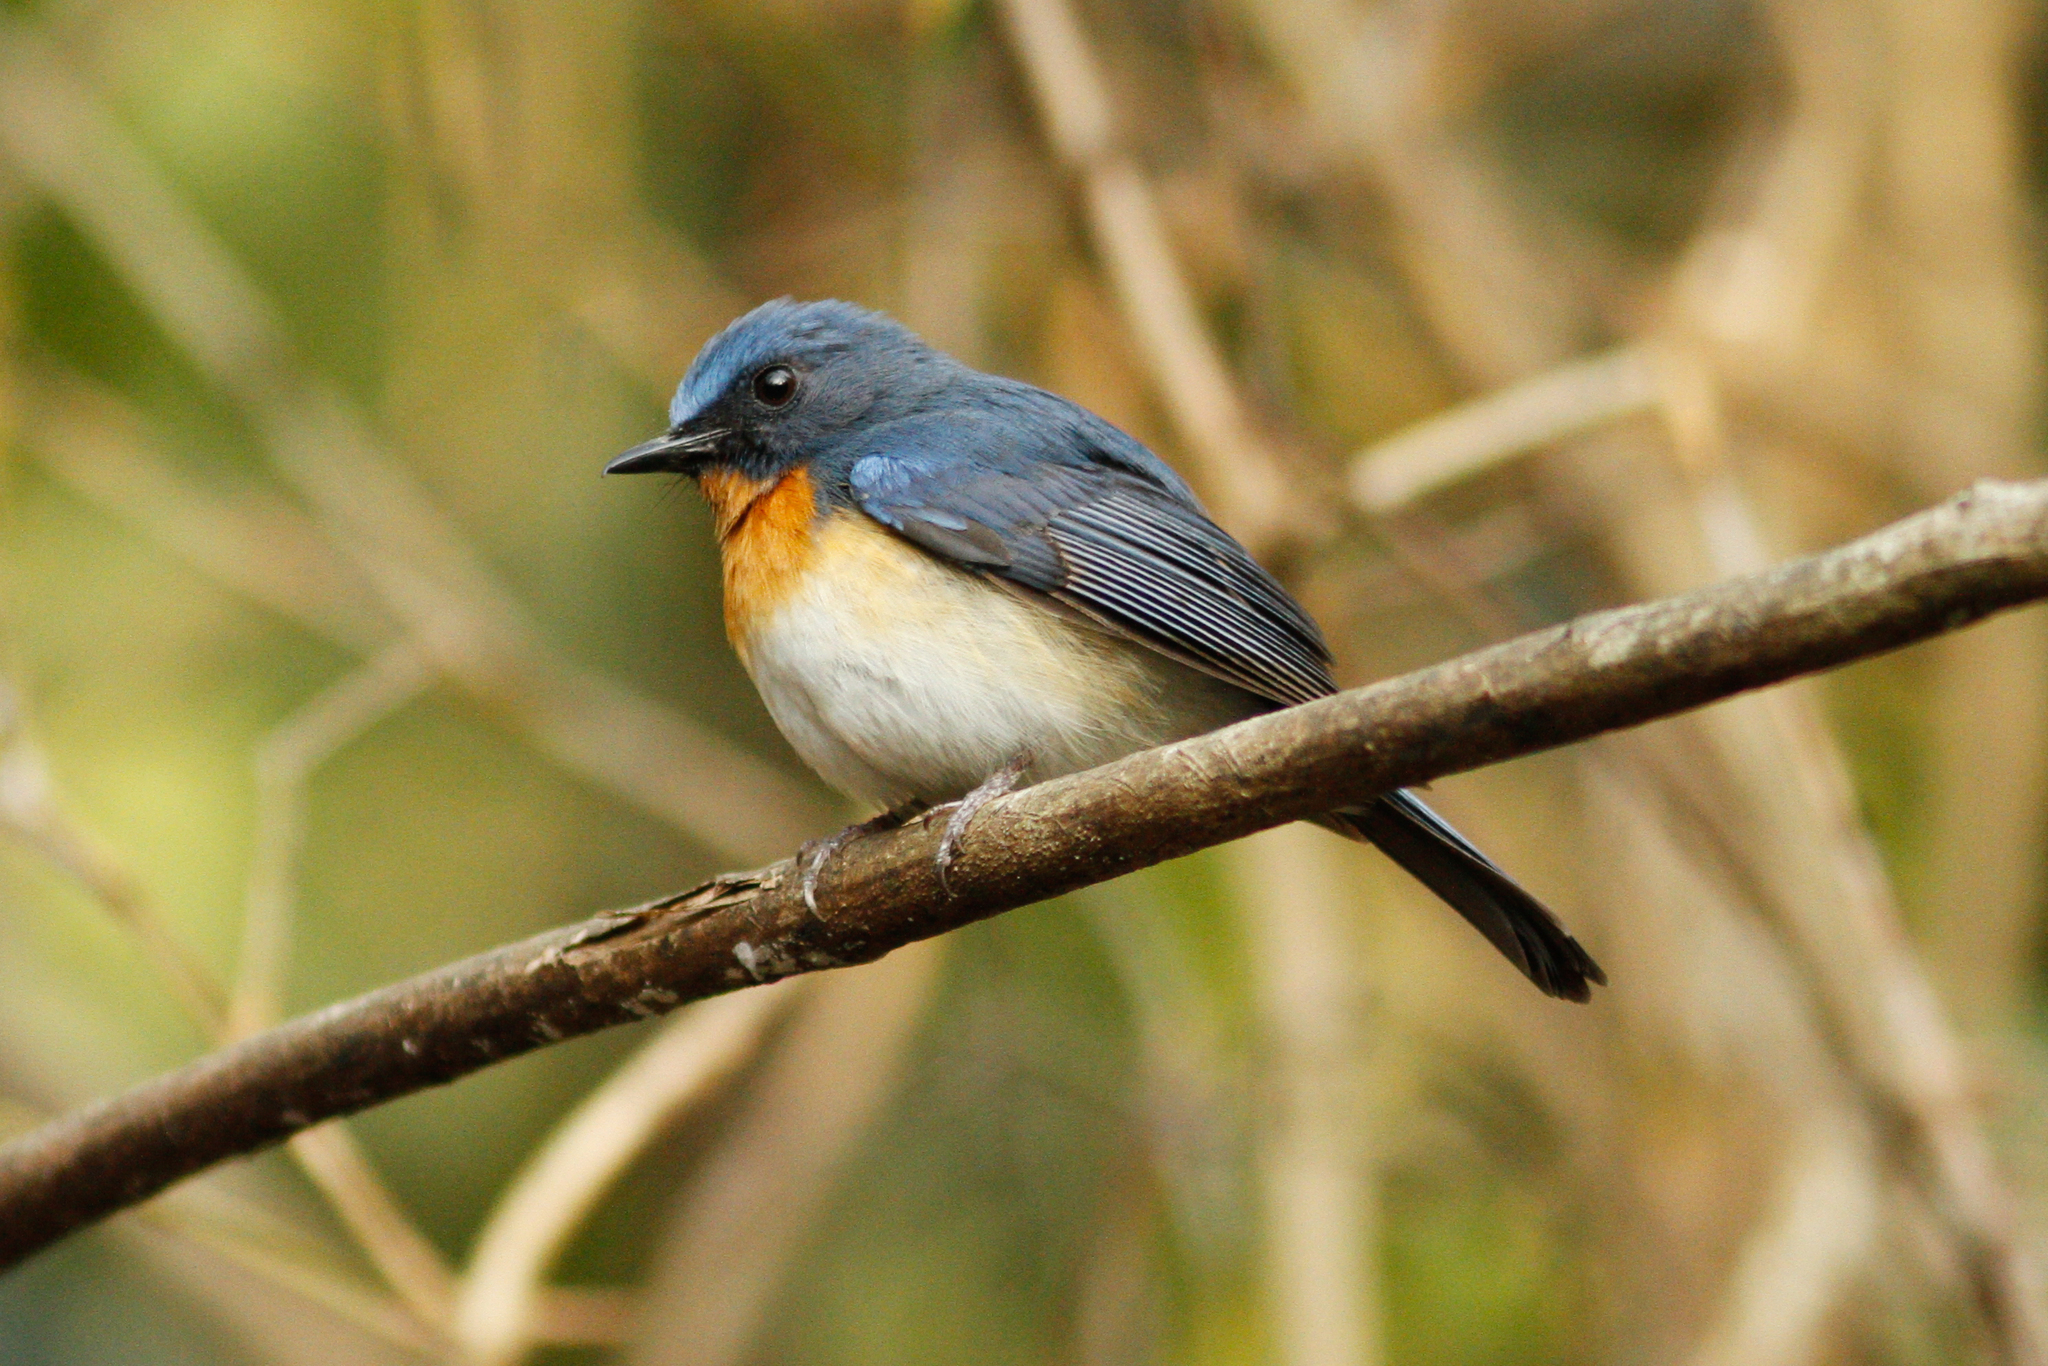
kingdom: Animalia
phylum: Chordata
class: Aves
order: Passeriformes
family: Muscicapidae
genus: Cyornis
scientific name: Cyornis tickelliae
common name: Tickell's blue flycatcher
